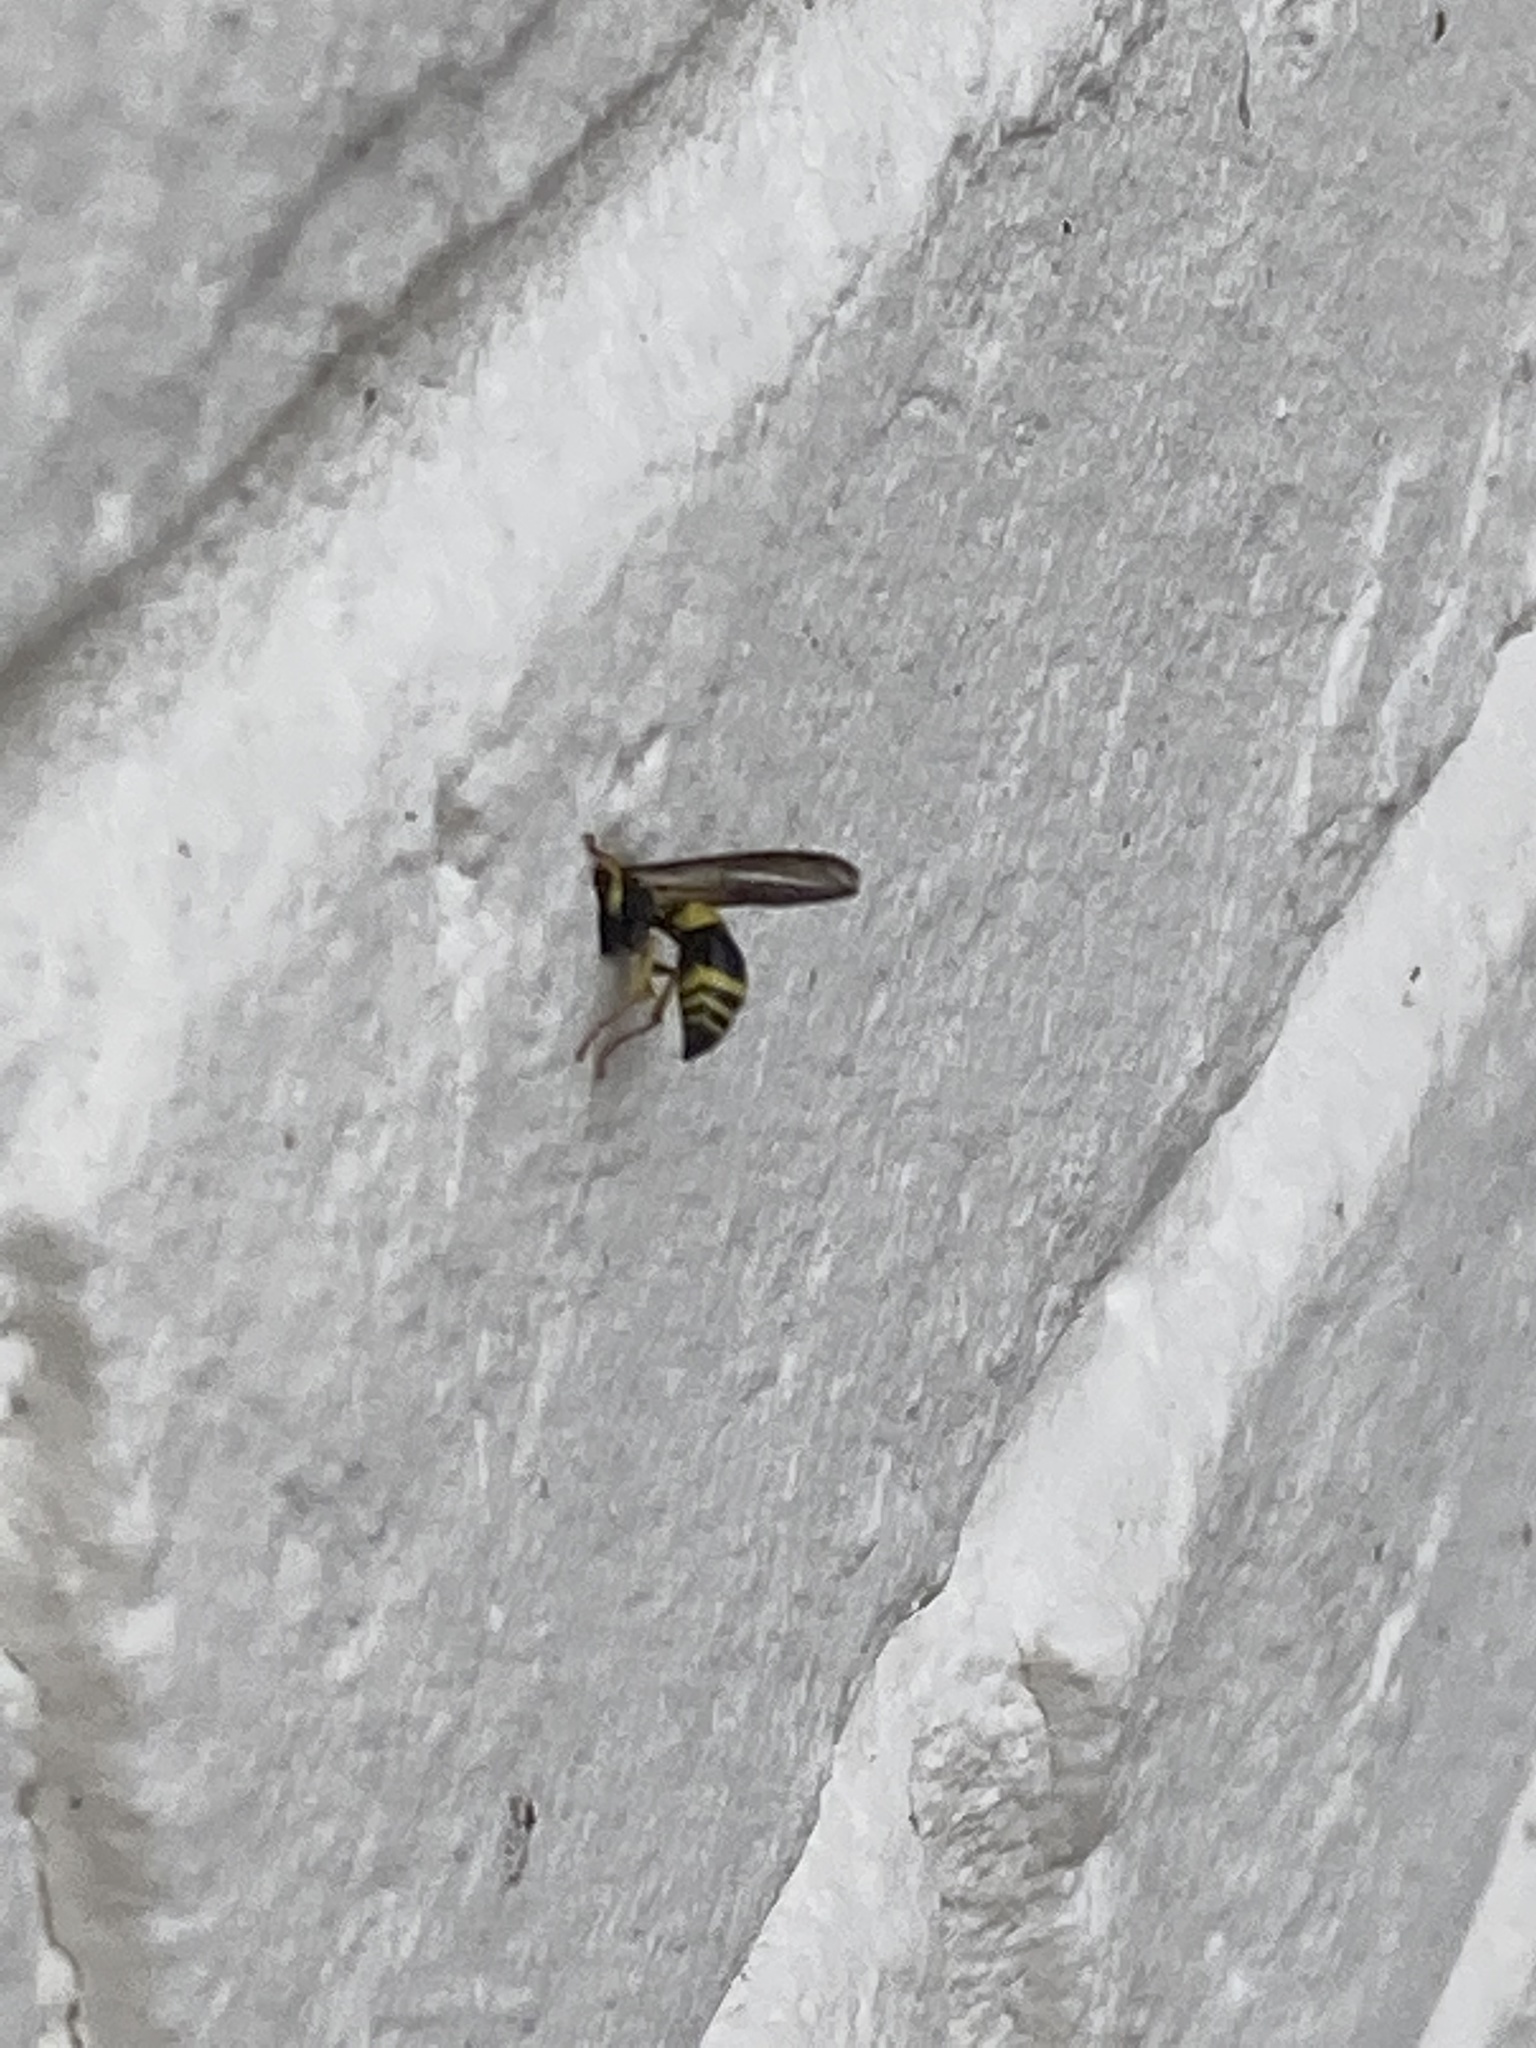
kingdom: Animalia
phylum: Arthropoda
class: Insecta
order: Hymenoptera
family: Eumenidae
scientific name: Eumenidae
